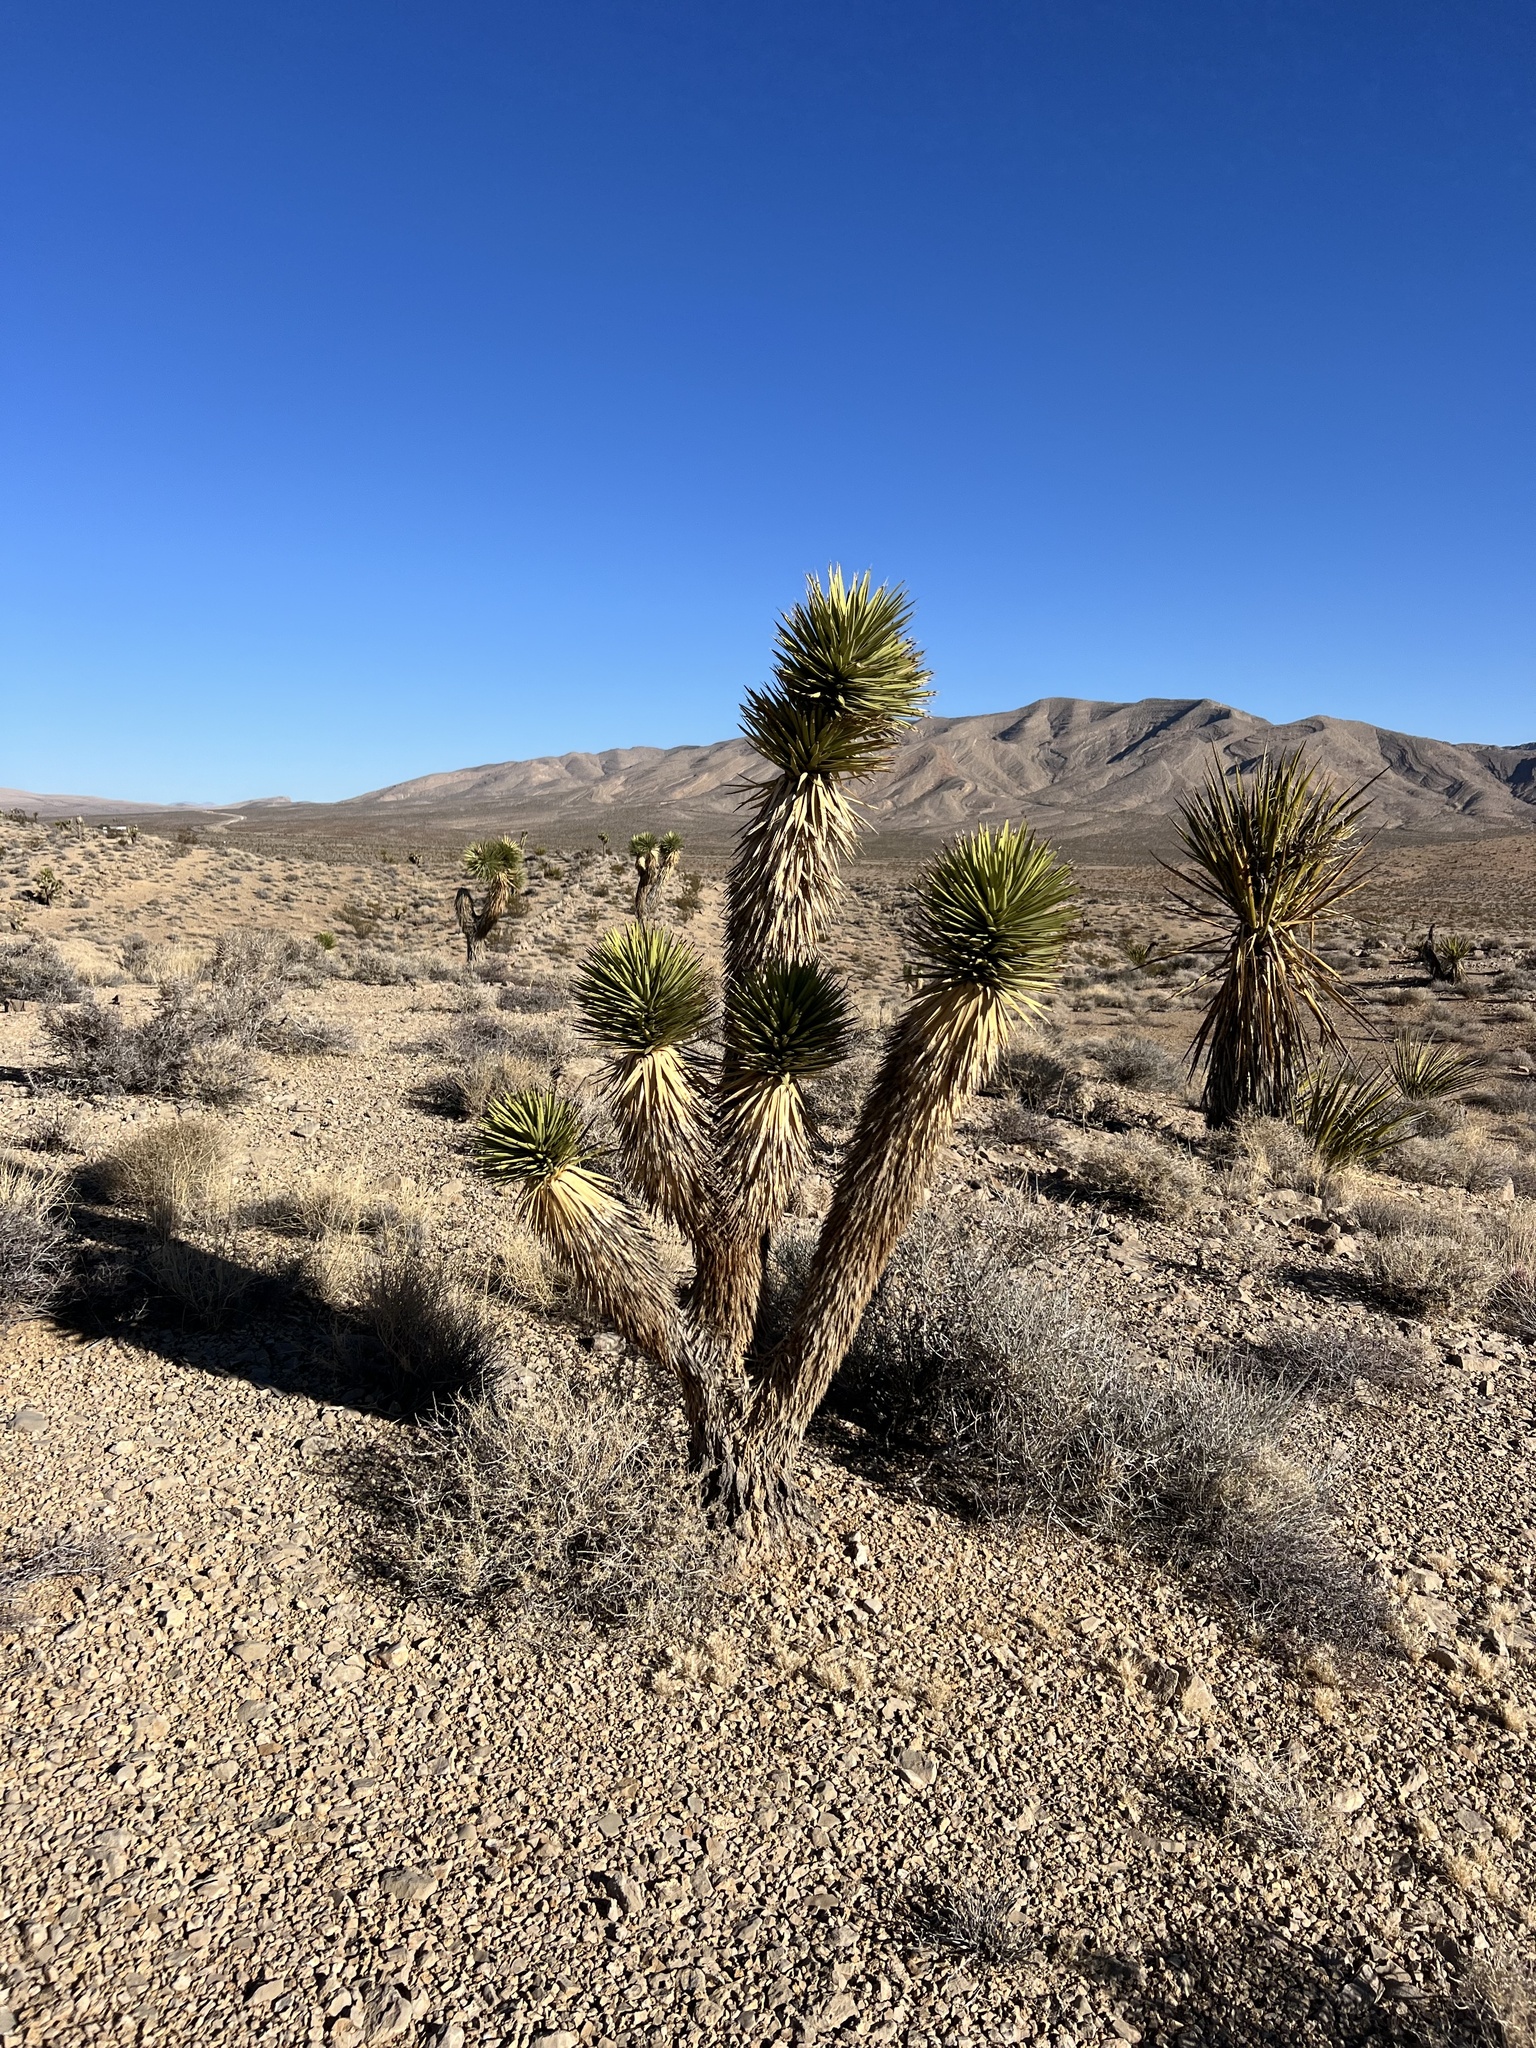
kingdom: Plantae
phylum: Tracheophyta
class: Liliopsida
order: Asparagales
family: Asparagaceae
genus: Yucca
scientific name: Yucca brevifolia
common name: Joshua tree
